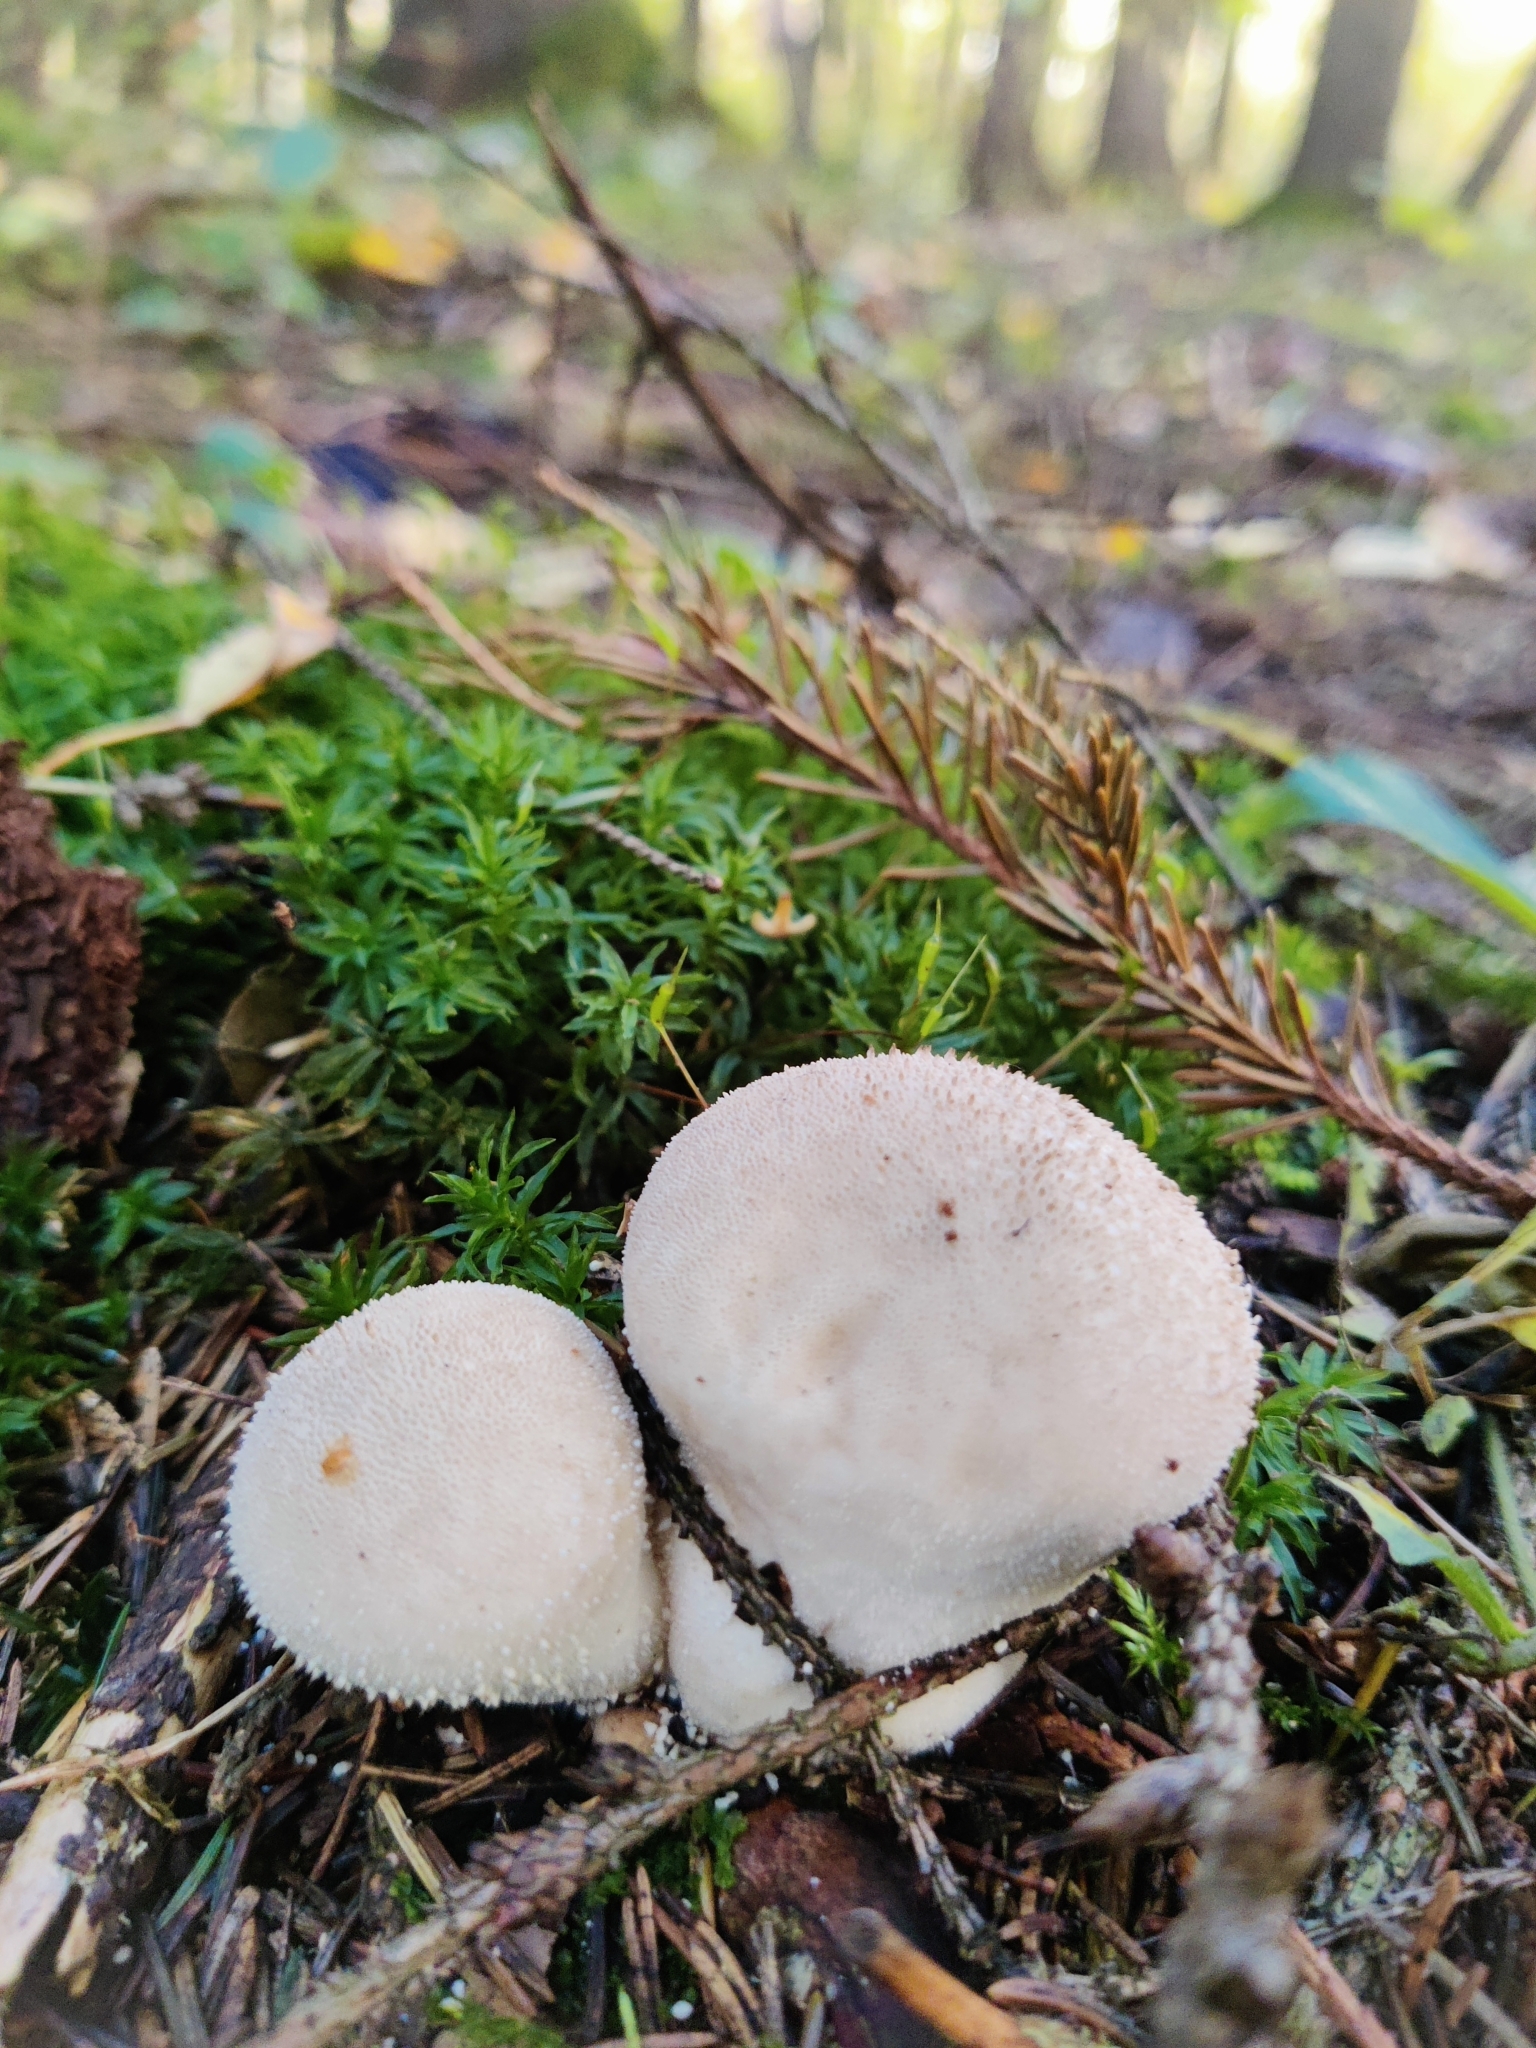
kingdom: Fungi
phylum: Basidiomycota
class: Agaricomycetes
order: Agaricales
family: Lycoperdaceae
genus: Lycoperdon
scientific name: Lycoperdon perlatum
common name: Common puffball
